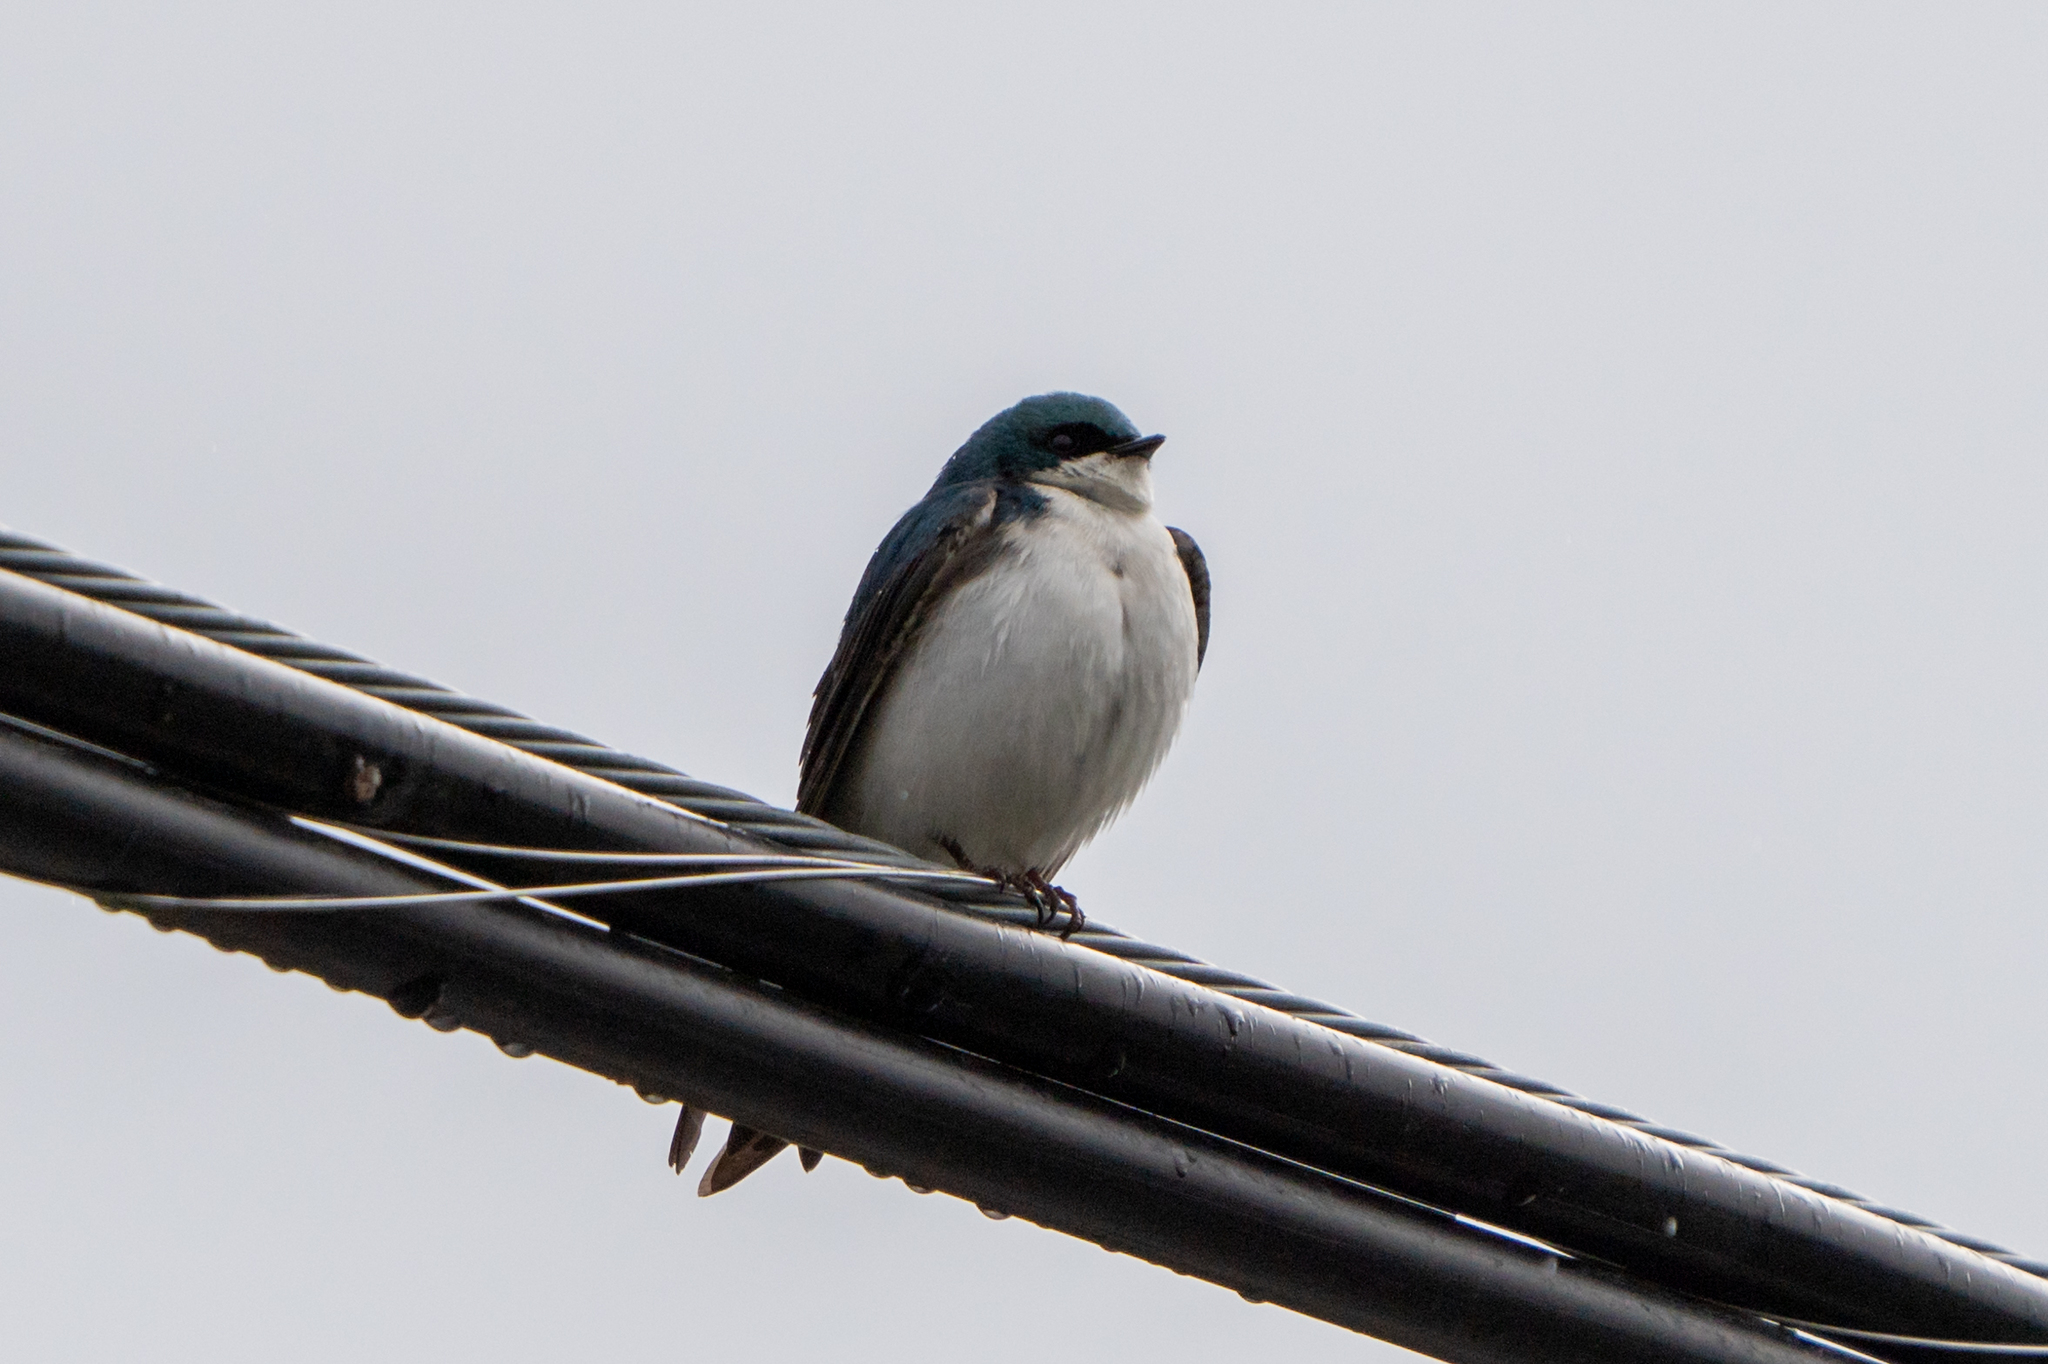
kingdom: Animalia
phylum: Chordata
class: Aves
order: Passeriformes
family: Hirundinidae
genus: Tachycineta
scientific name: Tachycineta bicolor
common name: Tree swallow
